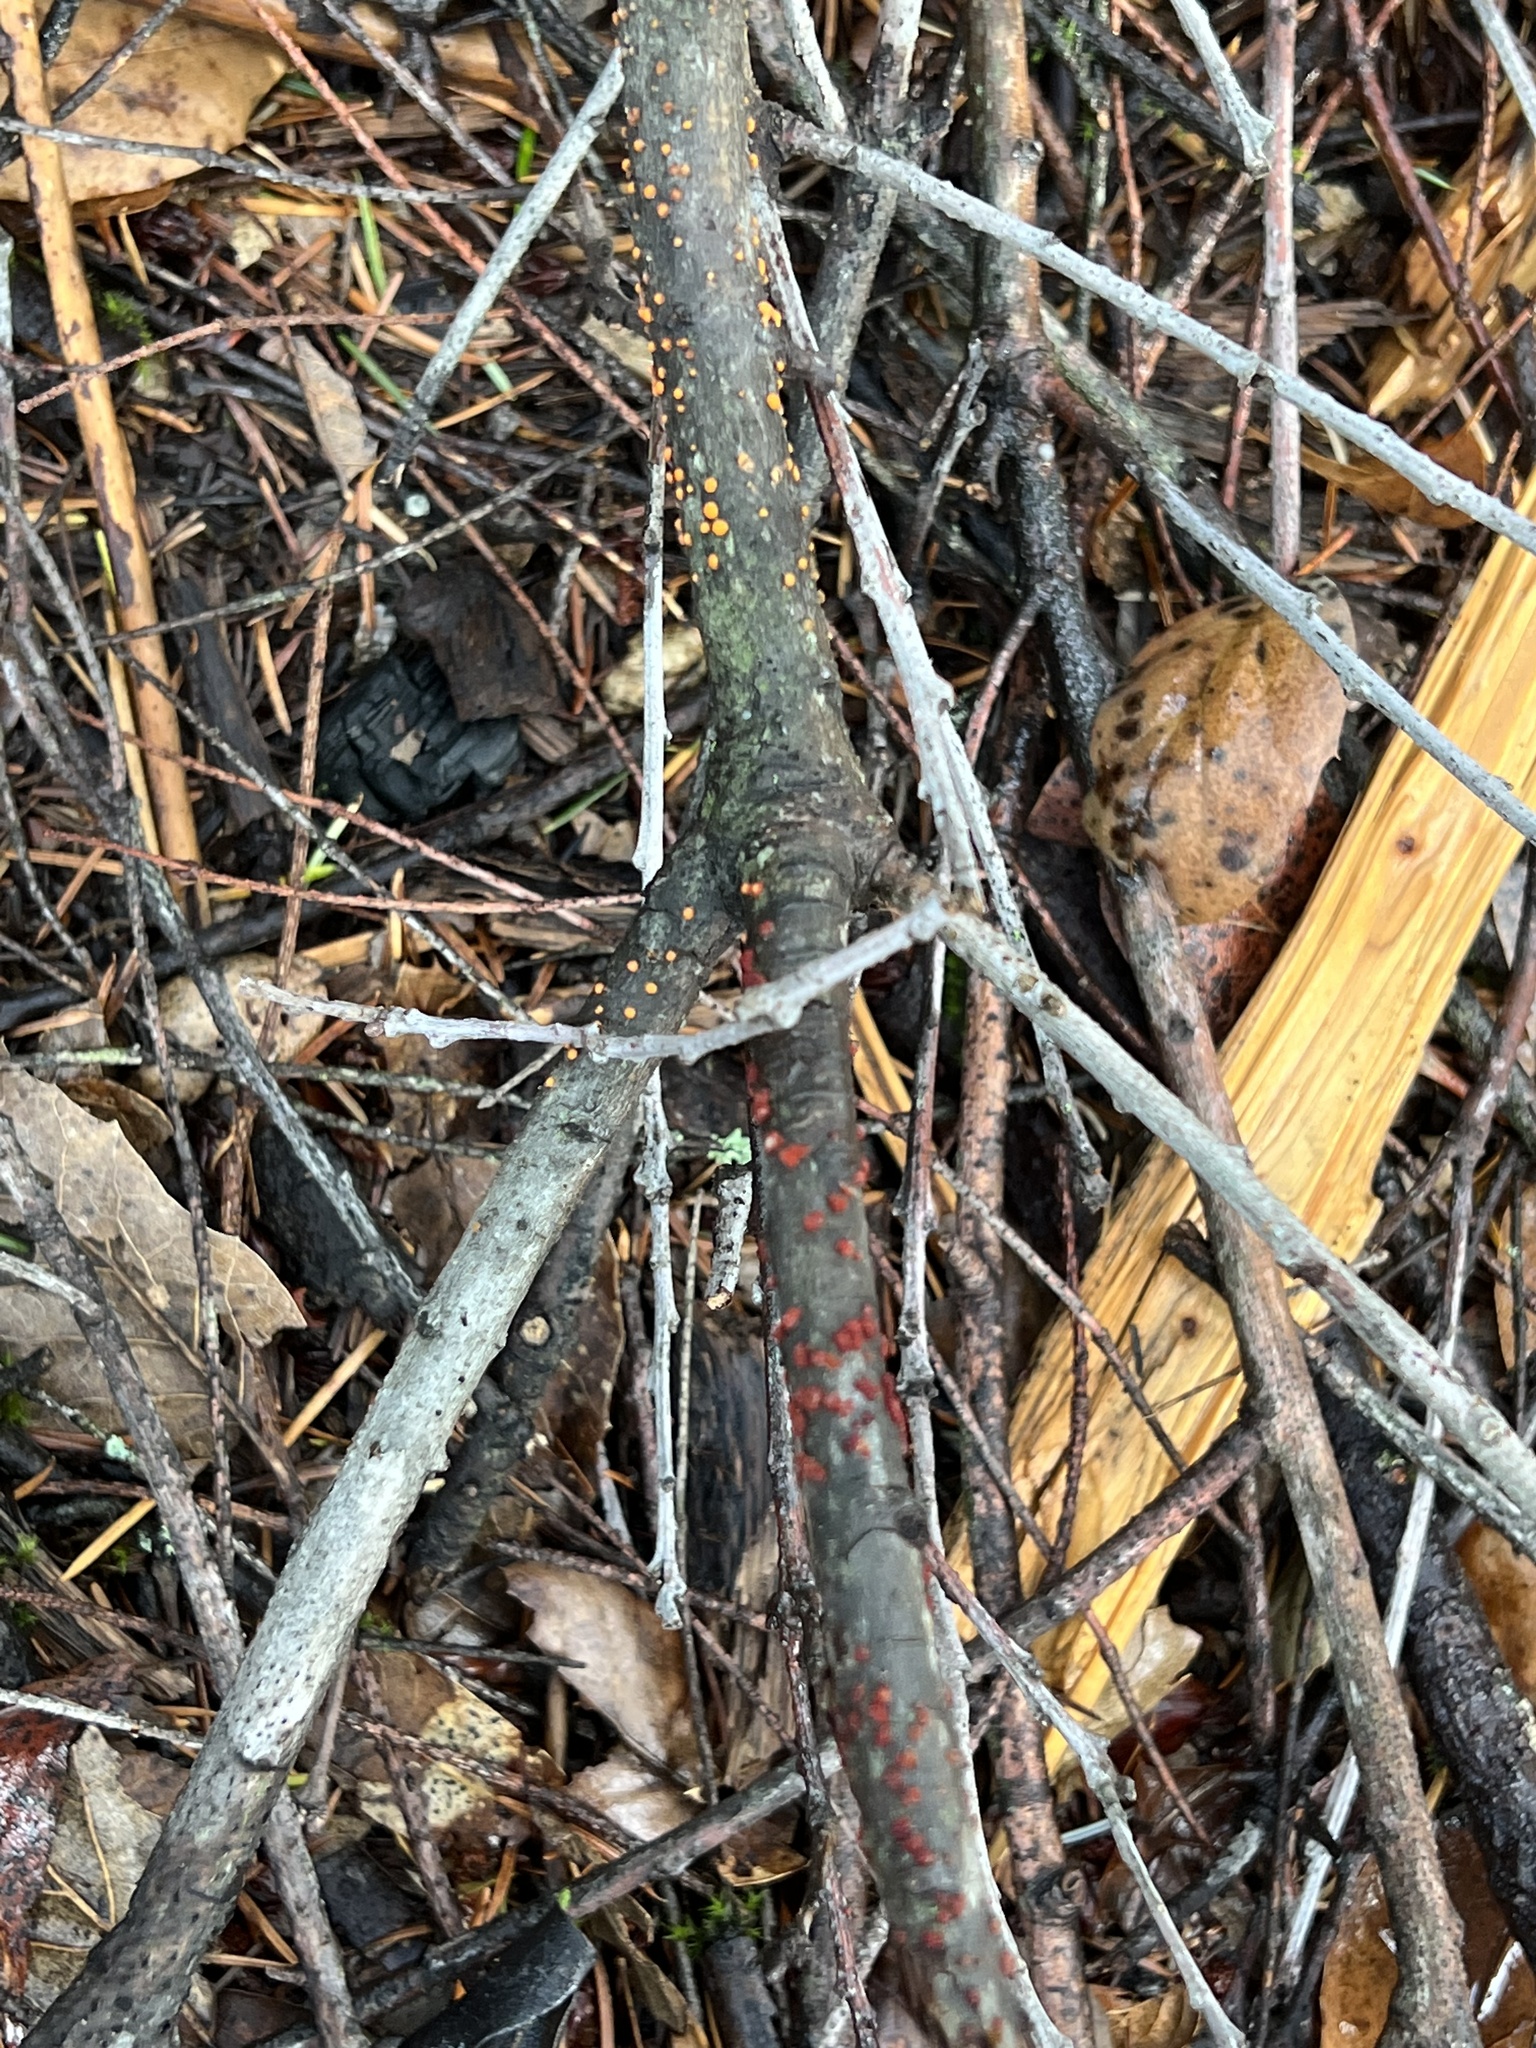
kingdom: Fungi
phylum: Ascomycota
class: Sordariomycetes
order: Hypocreales
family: Nectriaceae
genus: Nectria
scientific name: Nectria cinnabarina
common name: Coral spot
